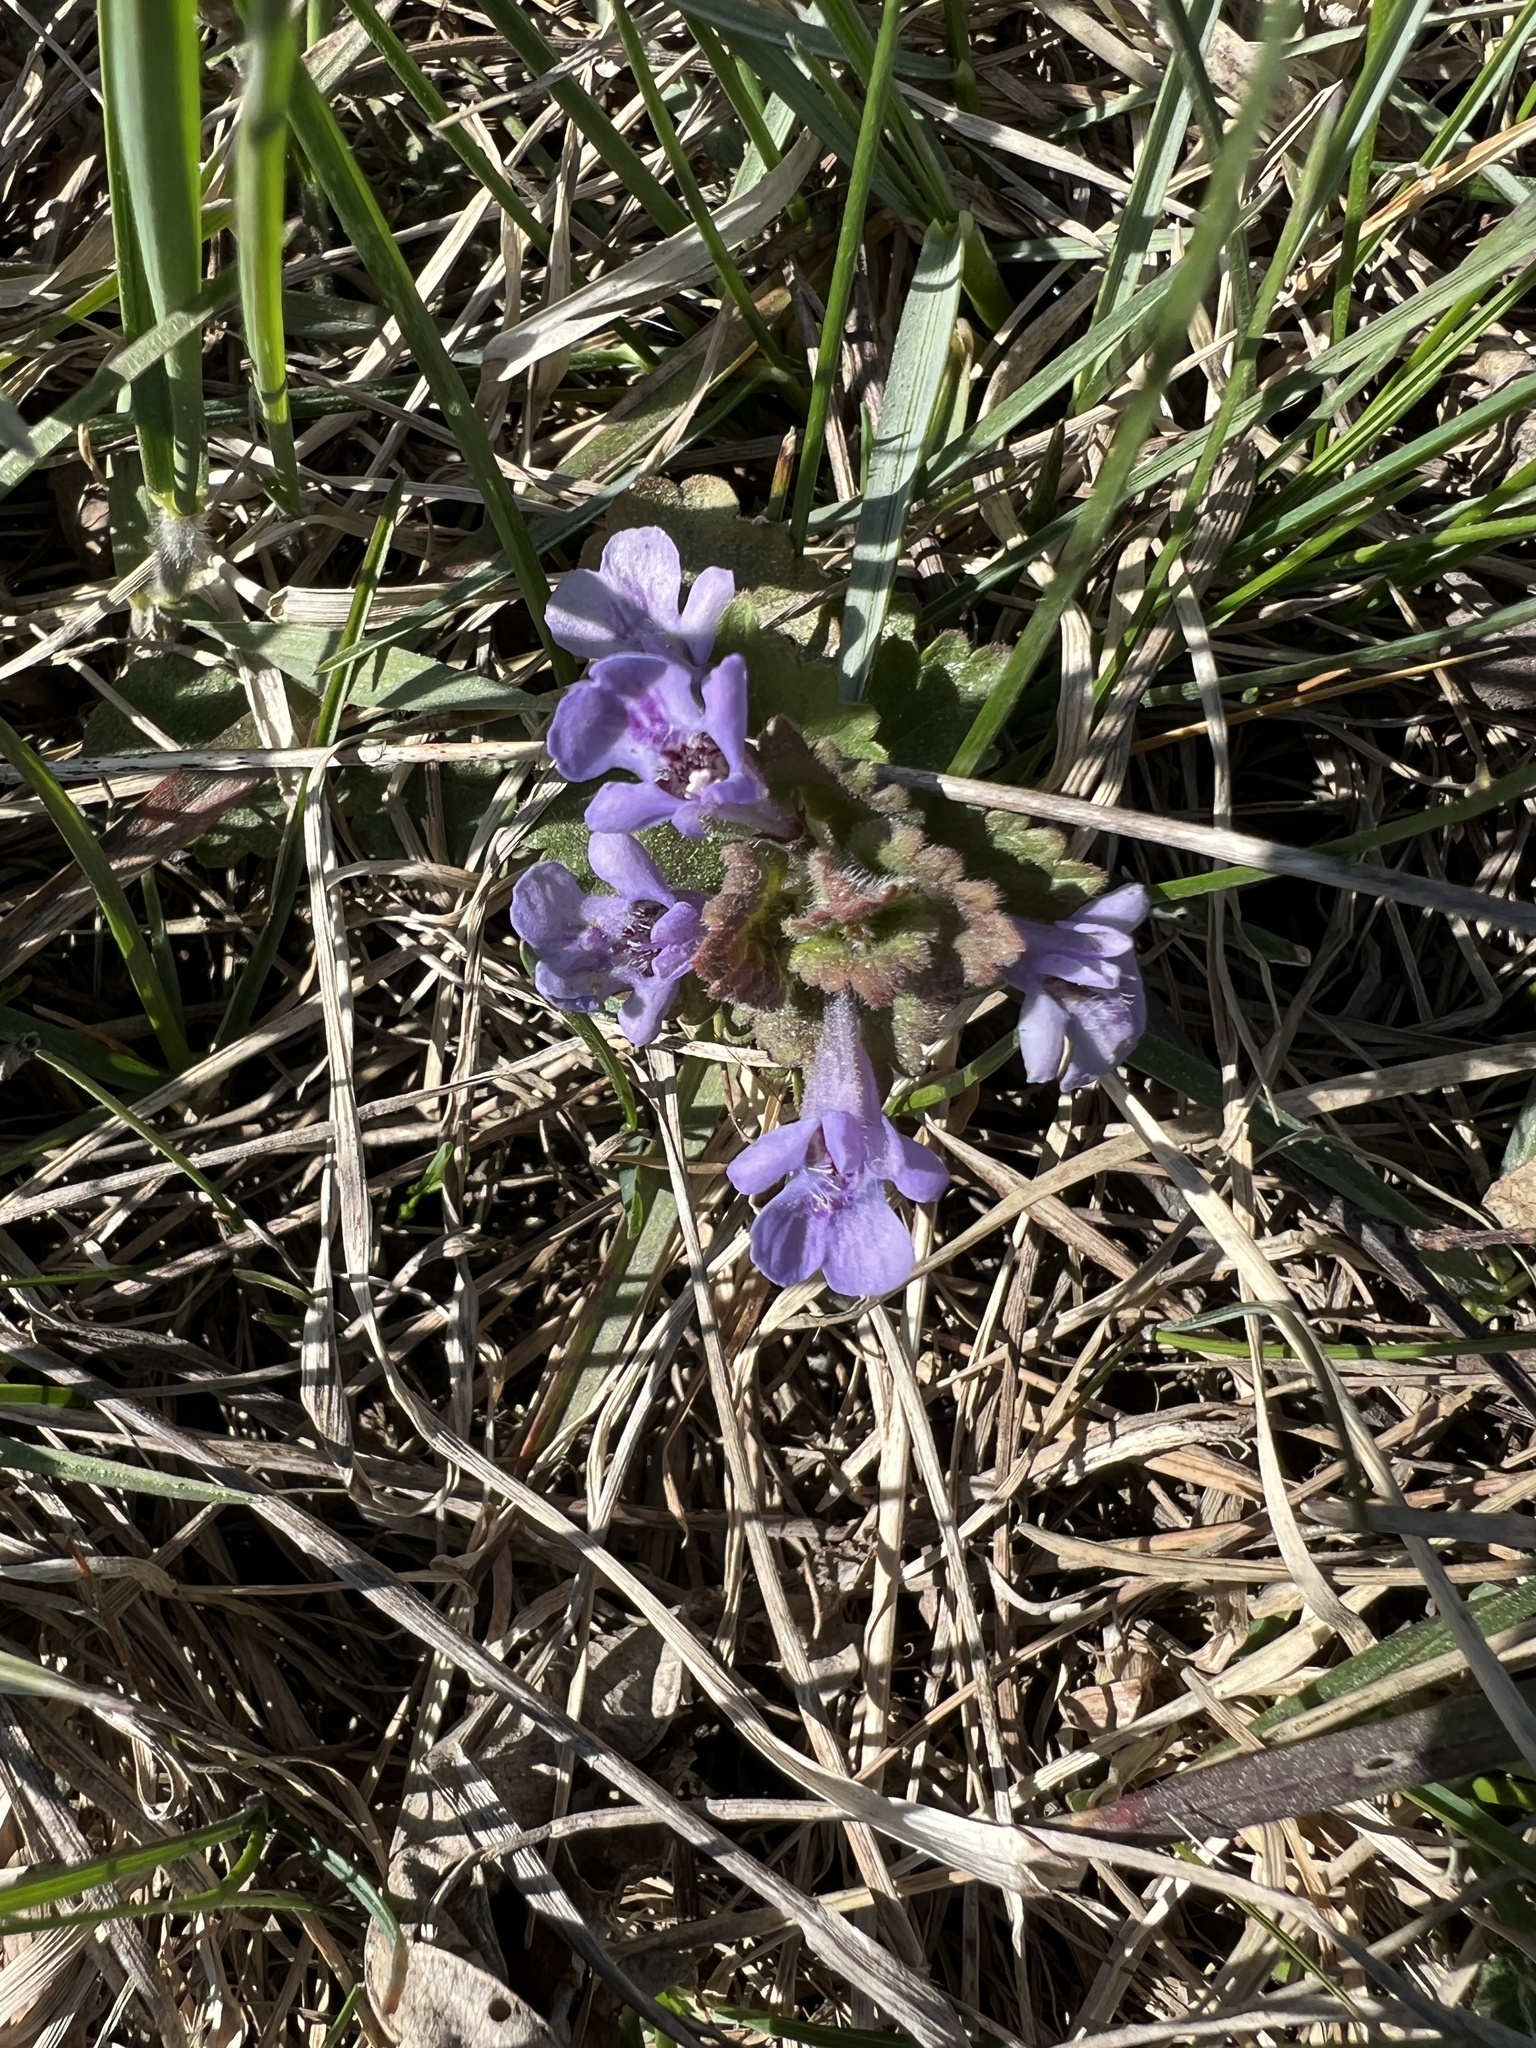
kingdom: Plantae
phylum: Tracheophyta
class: Magnoliopsida
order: Lamiales
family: Lamiaceae
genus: Glechoma
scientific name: Glechoma hederacea
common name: Ground ivy
